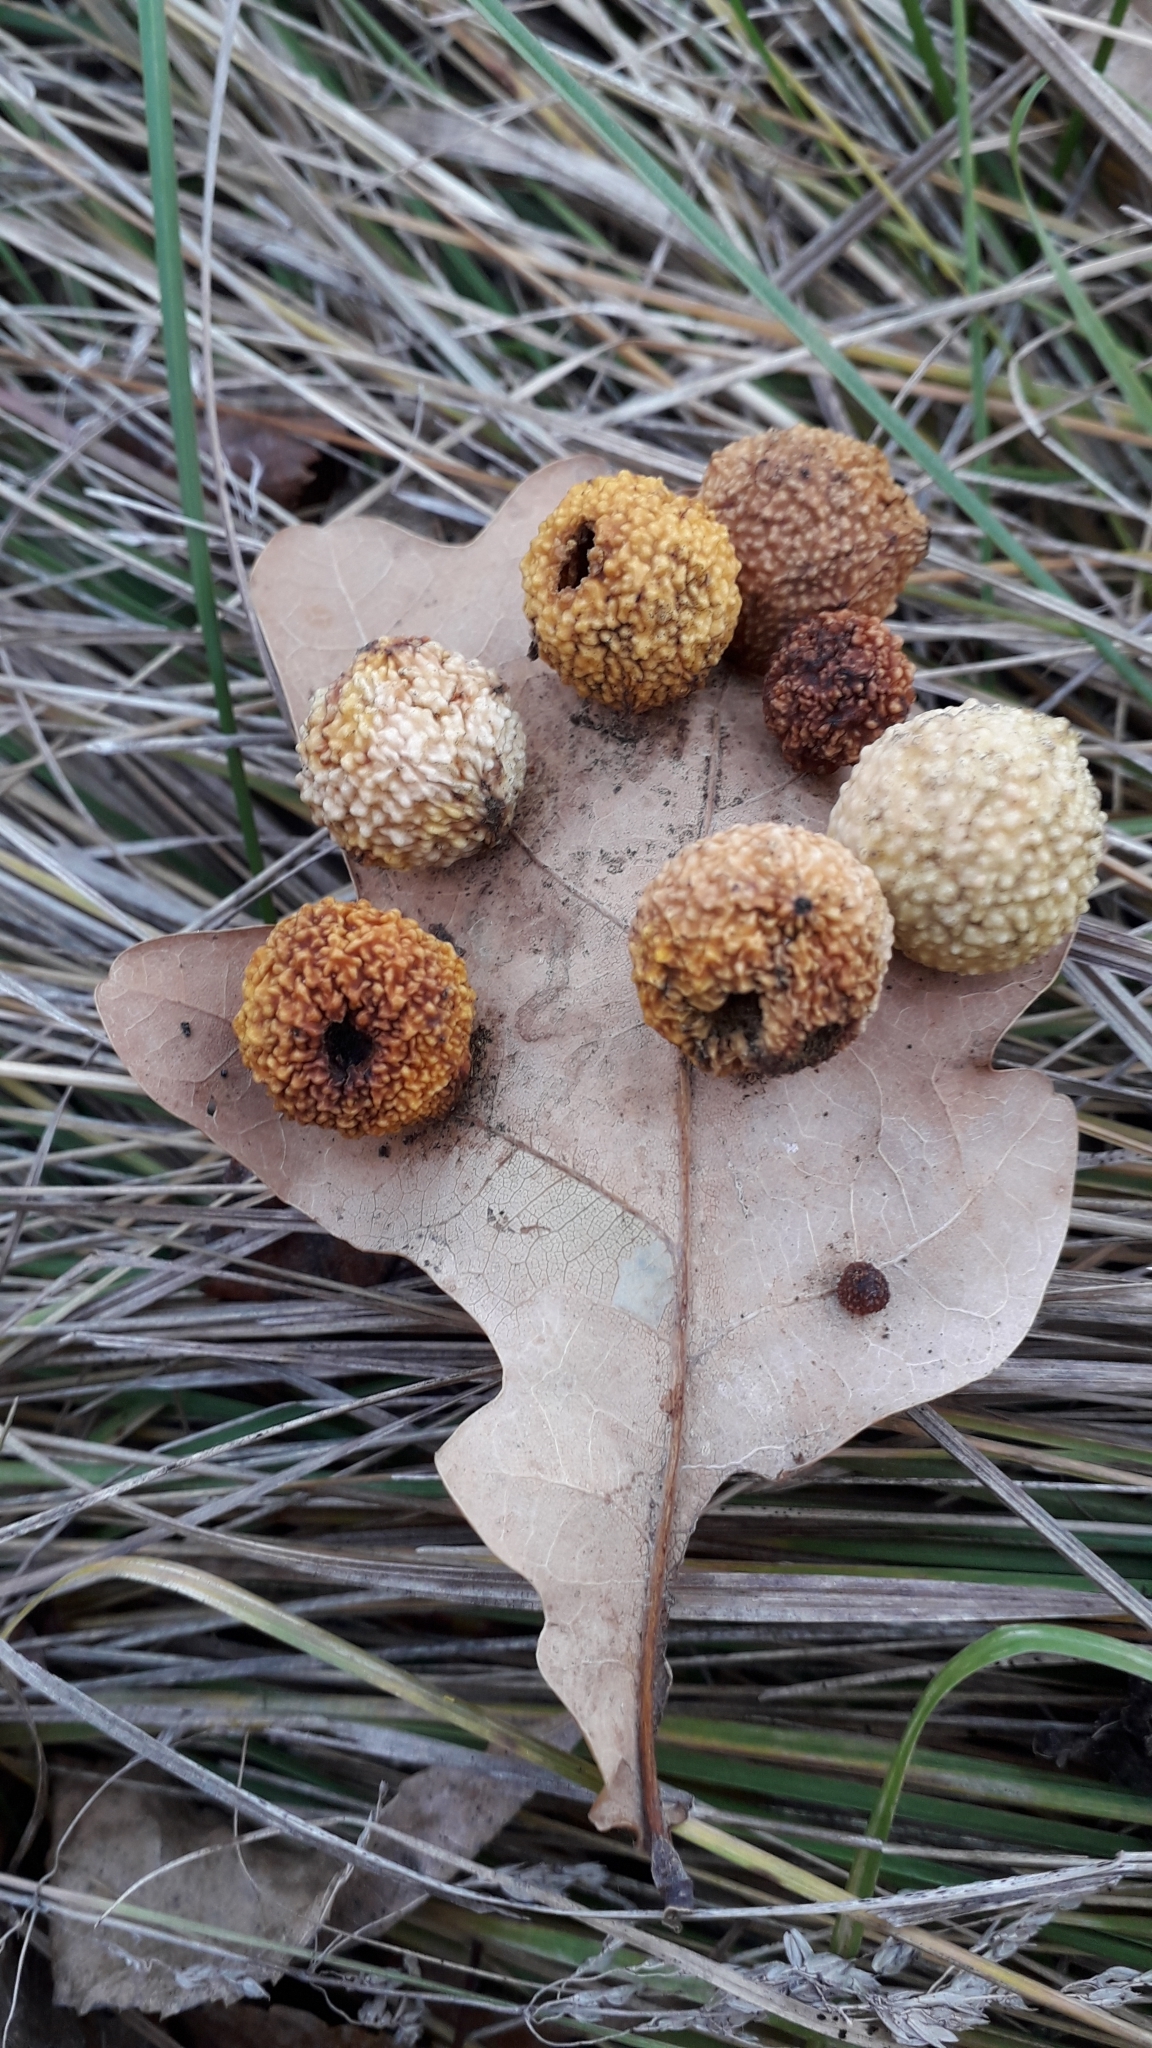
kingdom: Animalia
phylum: Arthropoda
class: Insecta
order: Hymenoptera
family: Cynipidae
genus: Cynips
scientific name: Cynips quercusfolii
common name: Cherry gall
